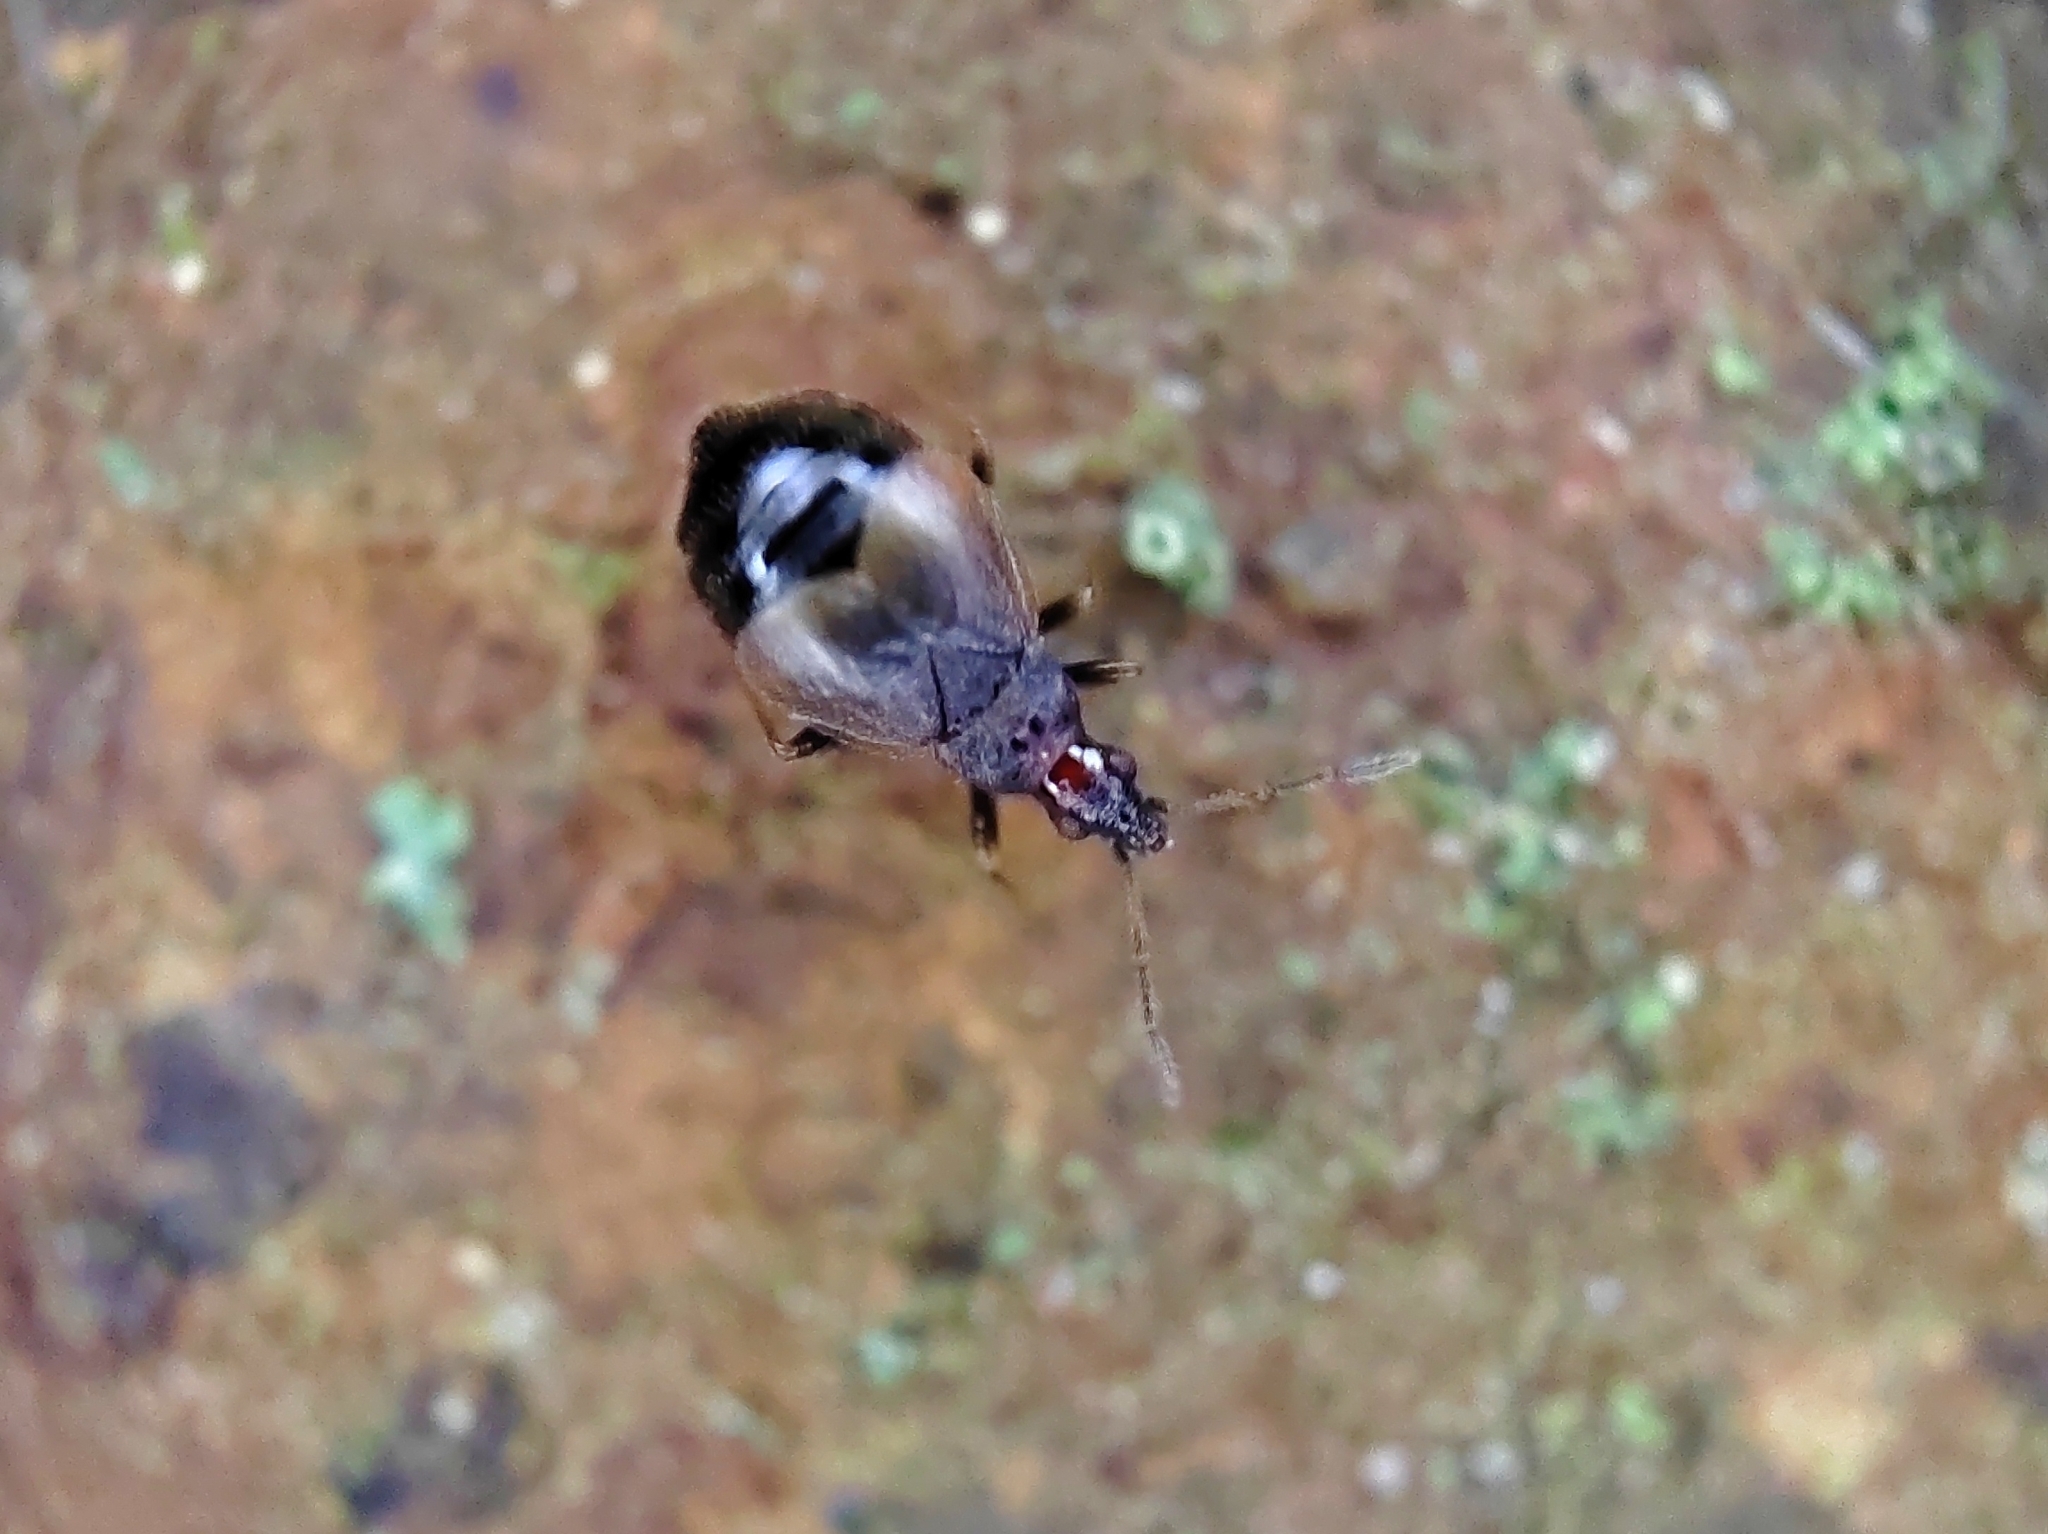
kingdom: Animalia
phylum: Arthropoda
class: Insecta
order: Hemiptera
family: Microphysidae
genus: Loricula
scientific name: Loricula pselaphiformis
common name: Minute bladder bug
